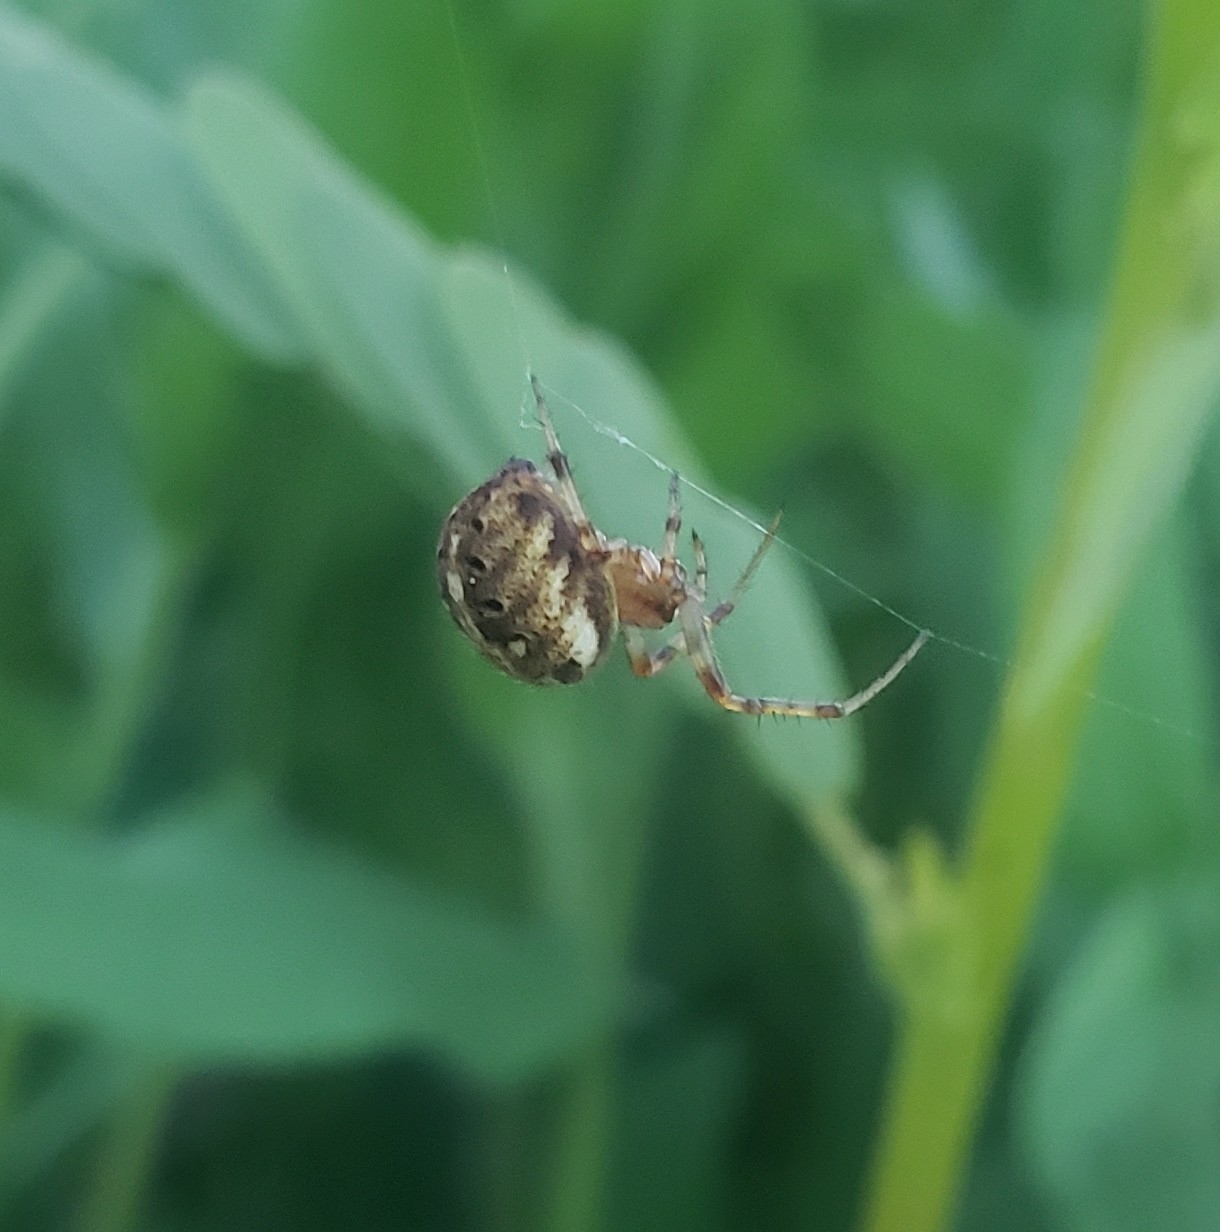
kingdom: Animalia
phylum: Arthropoda
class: Arachnida
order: Araneae
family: Araneidae
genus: Neoscona
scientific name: Neoscona arabesca
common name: Orb weavers
